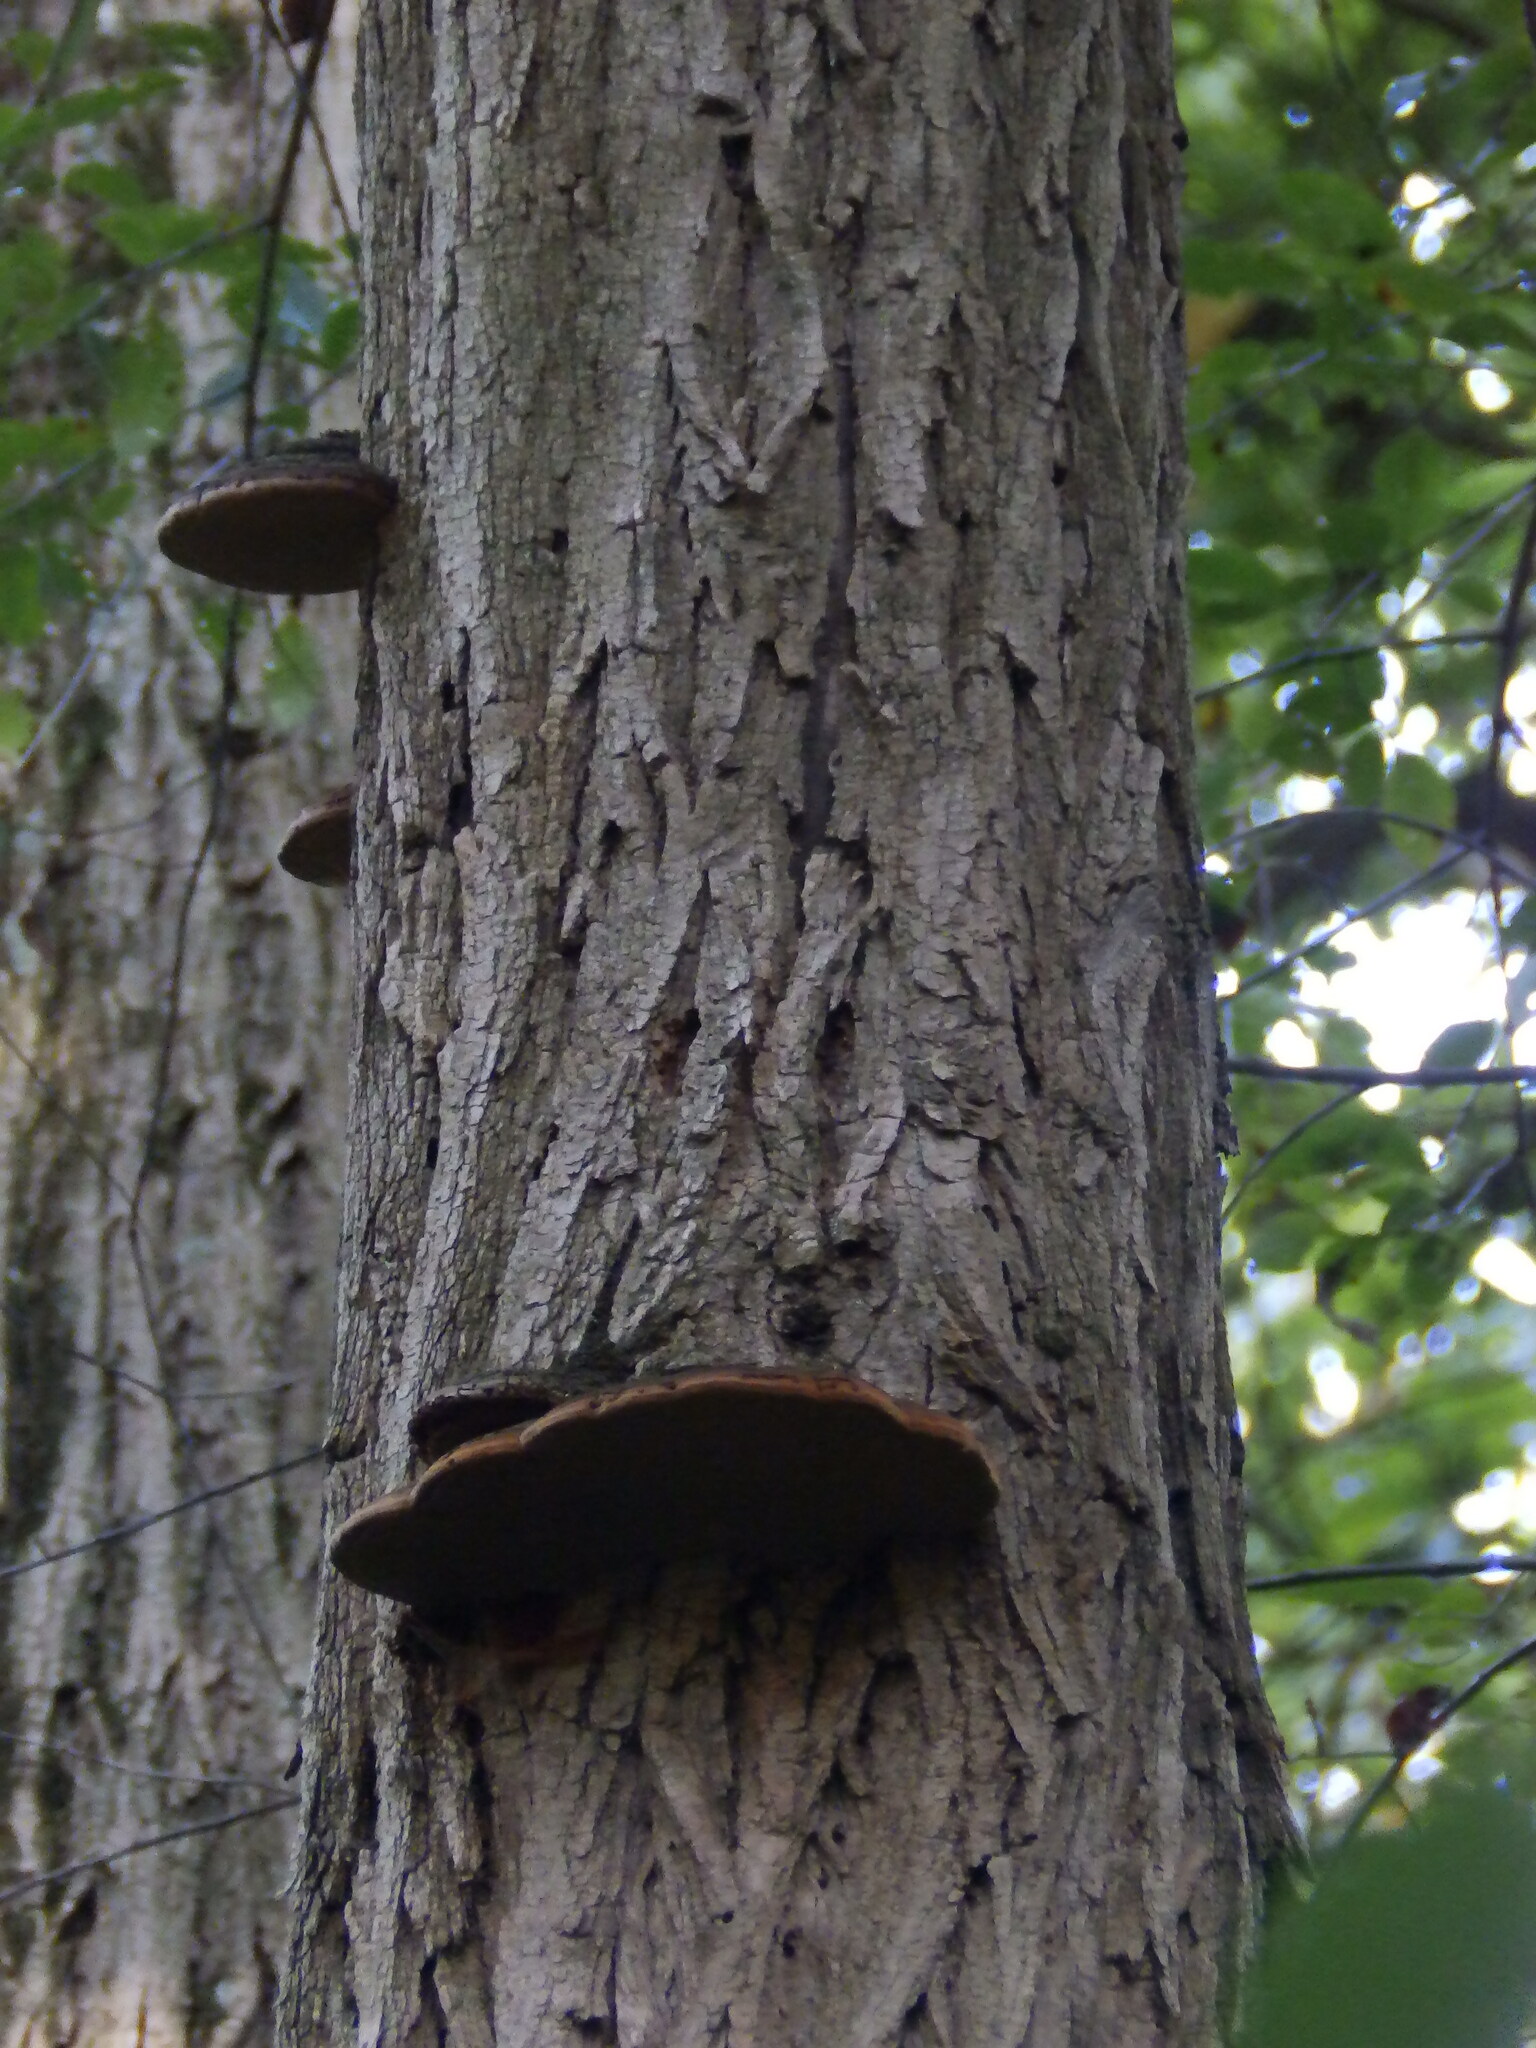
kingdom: Fungi
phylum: Basidiomycota
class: Agaricomycetes
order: Hymenochaetales
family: Hymenochaetaceae
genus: Phellinus
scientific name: Phellinus robiniae
